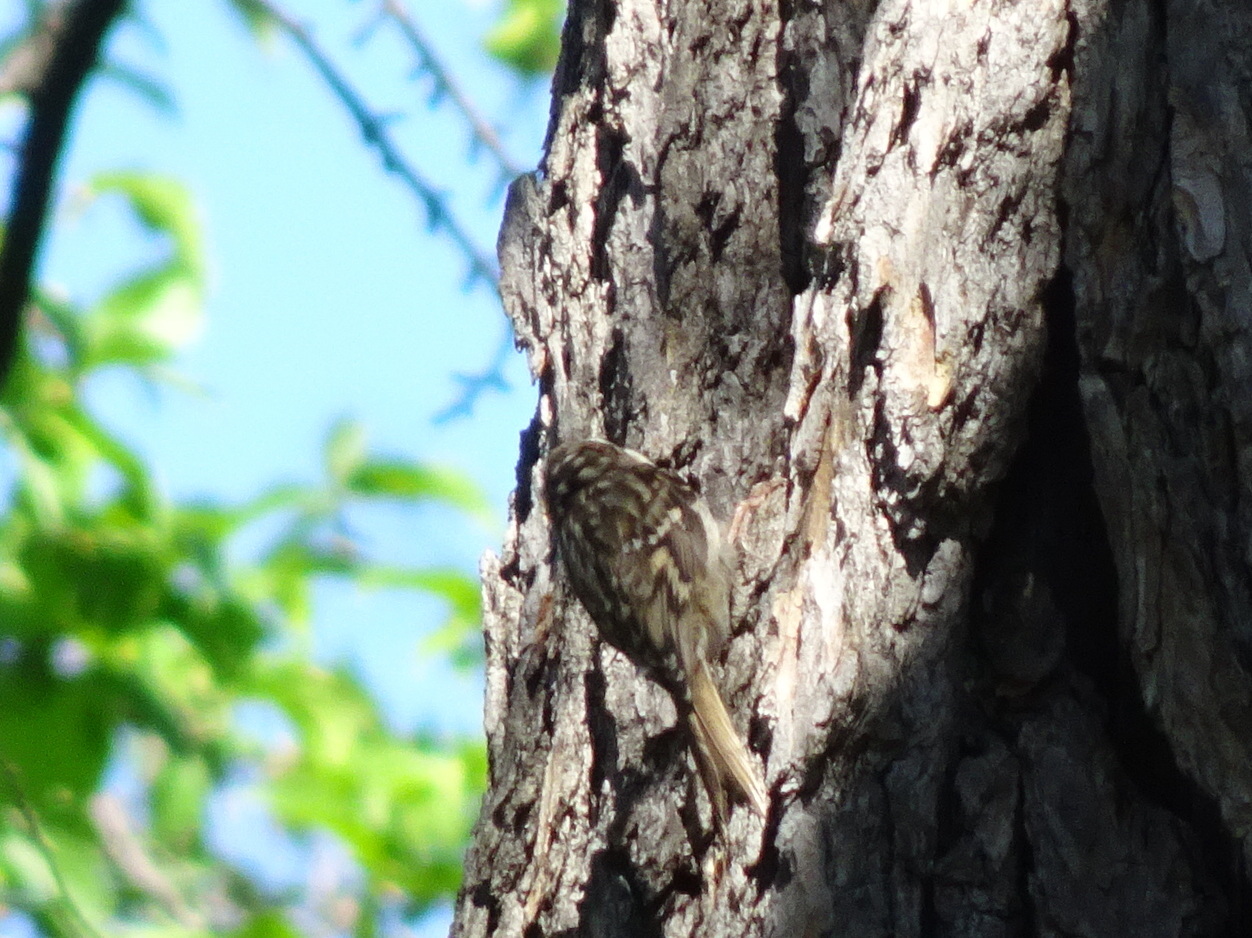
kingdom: Animalia
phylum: Chordata
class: Aves
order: Passeriformes
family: Certhiidae
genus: Certhia
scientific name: Certhia brachydactyla
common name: Short-toed treecreeper
